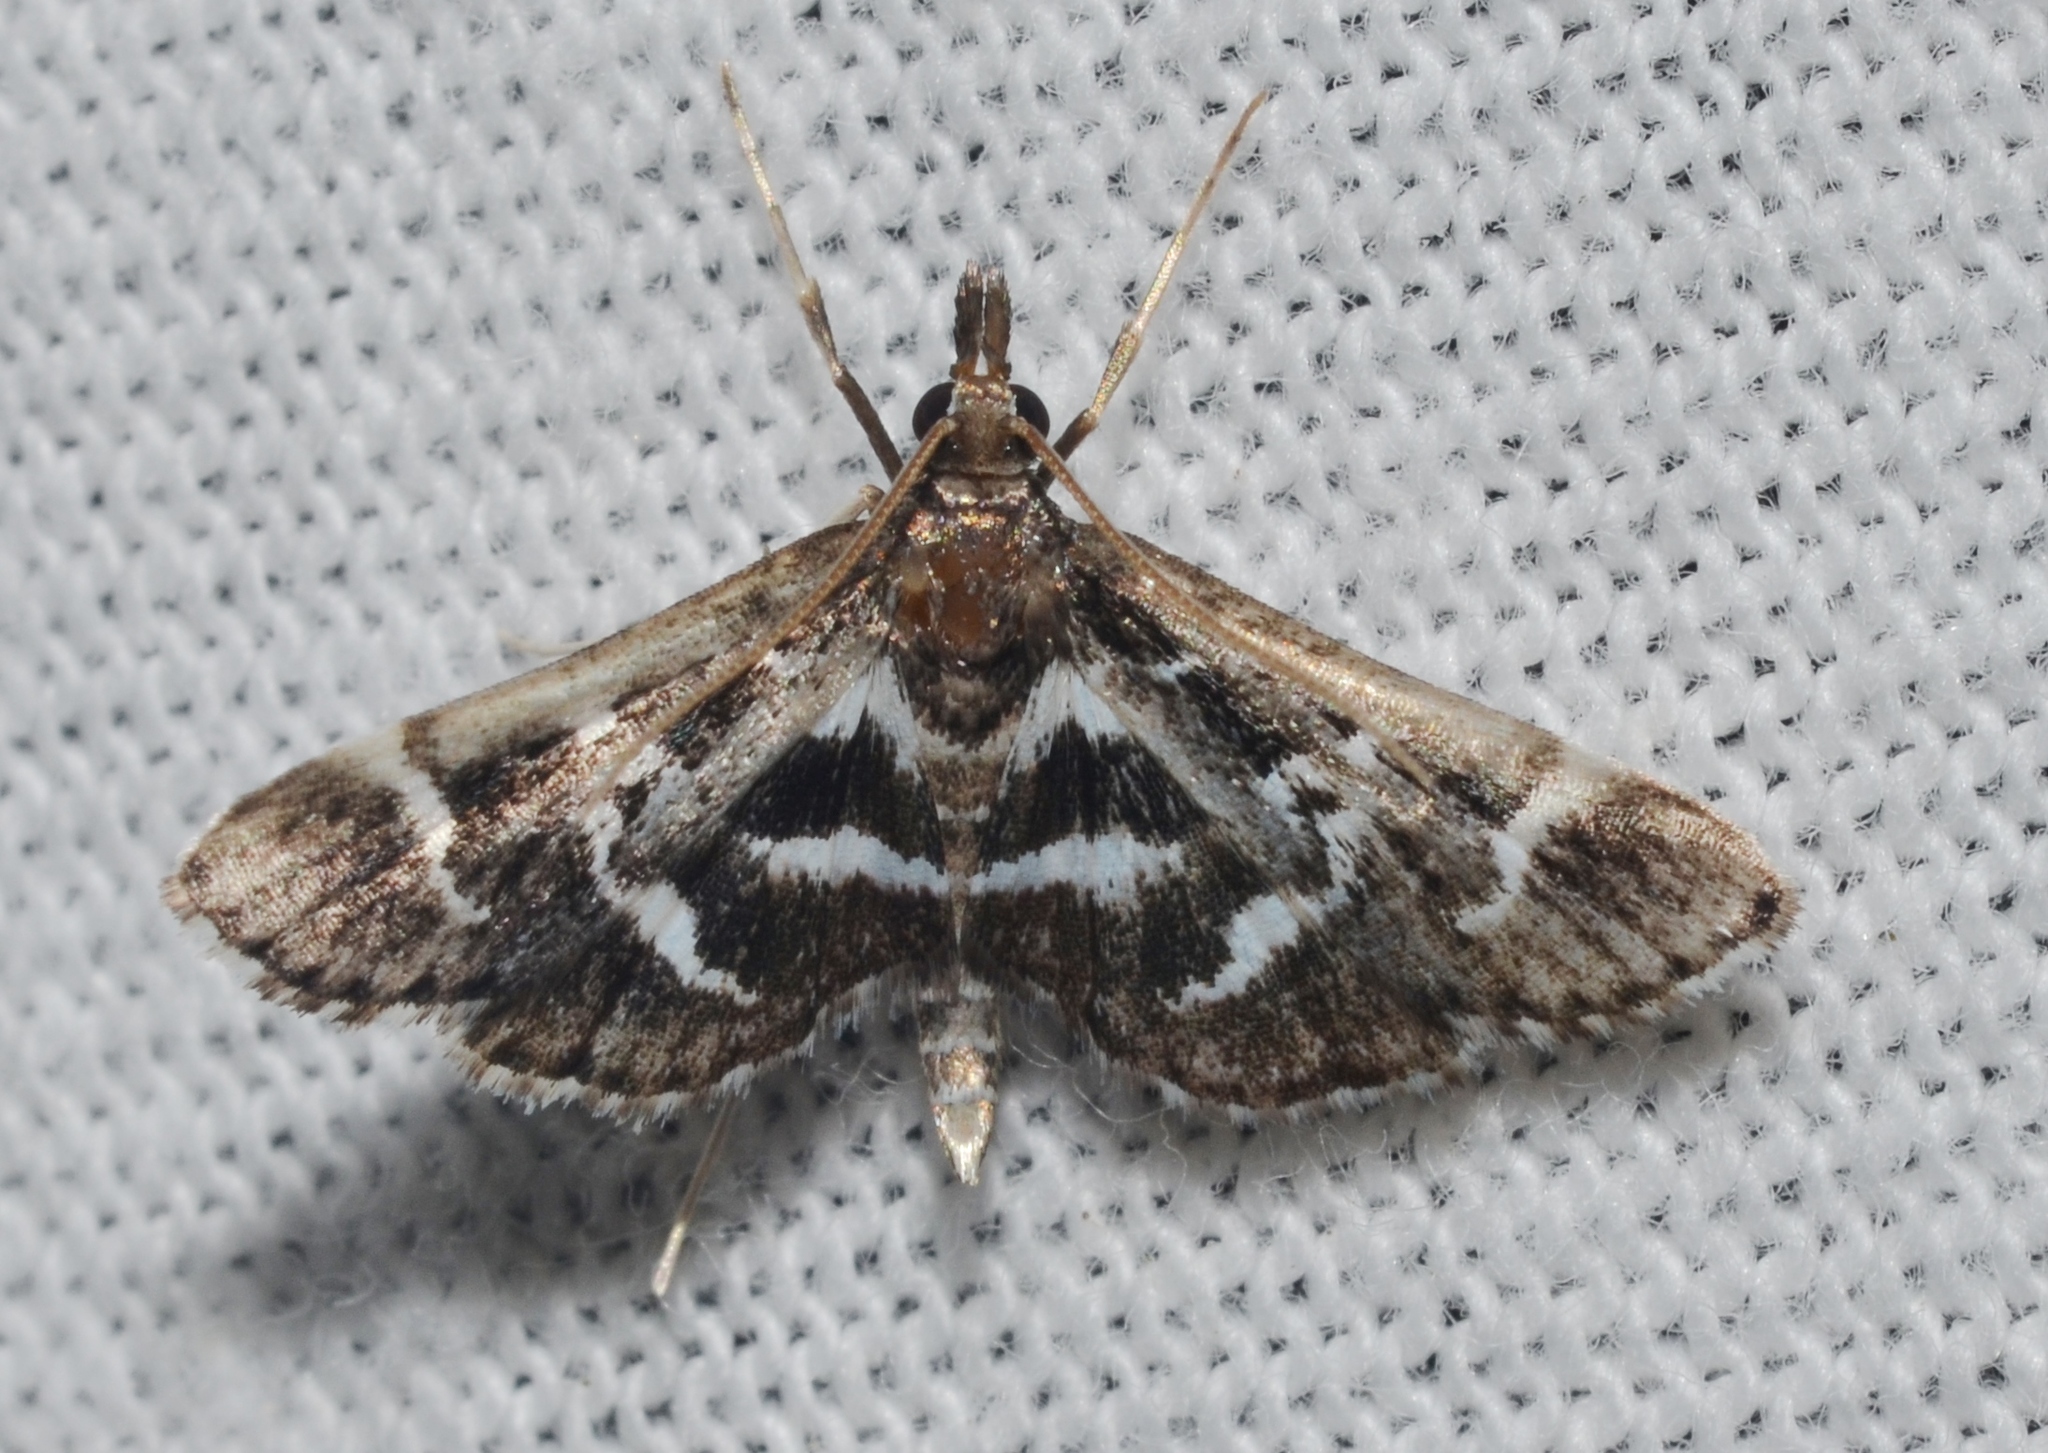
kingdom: Animalia
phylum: Arthropoda
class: Insecta
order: Lepidoptera
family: Crambidae
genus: Diasemiodes
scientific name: Diasemiodes janassialis
